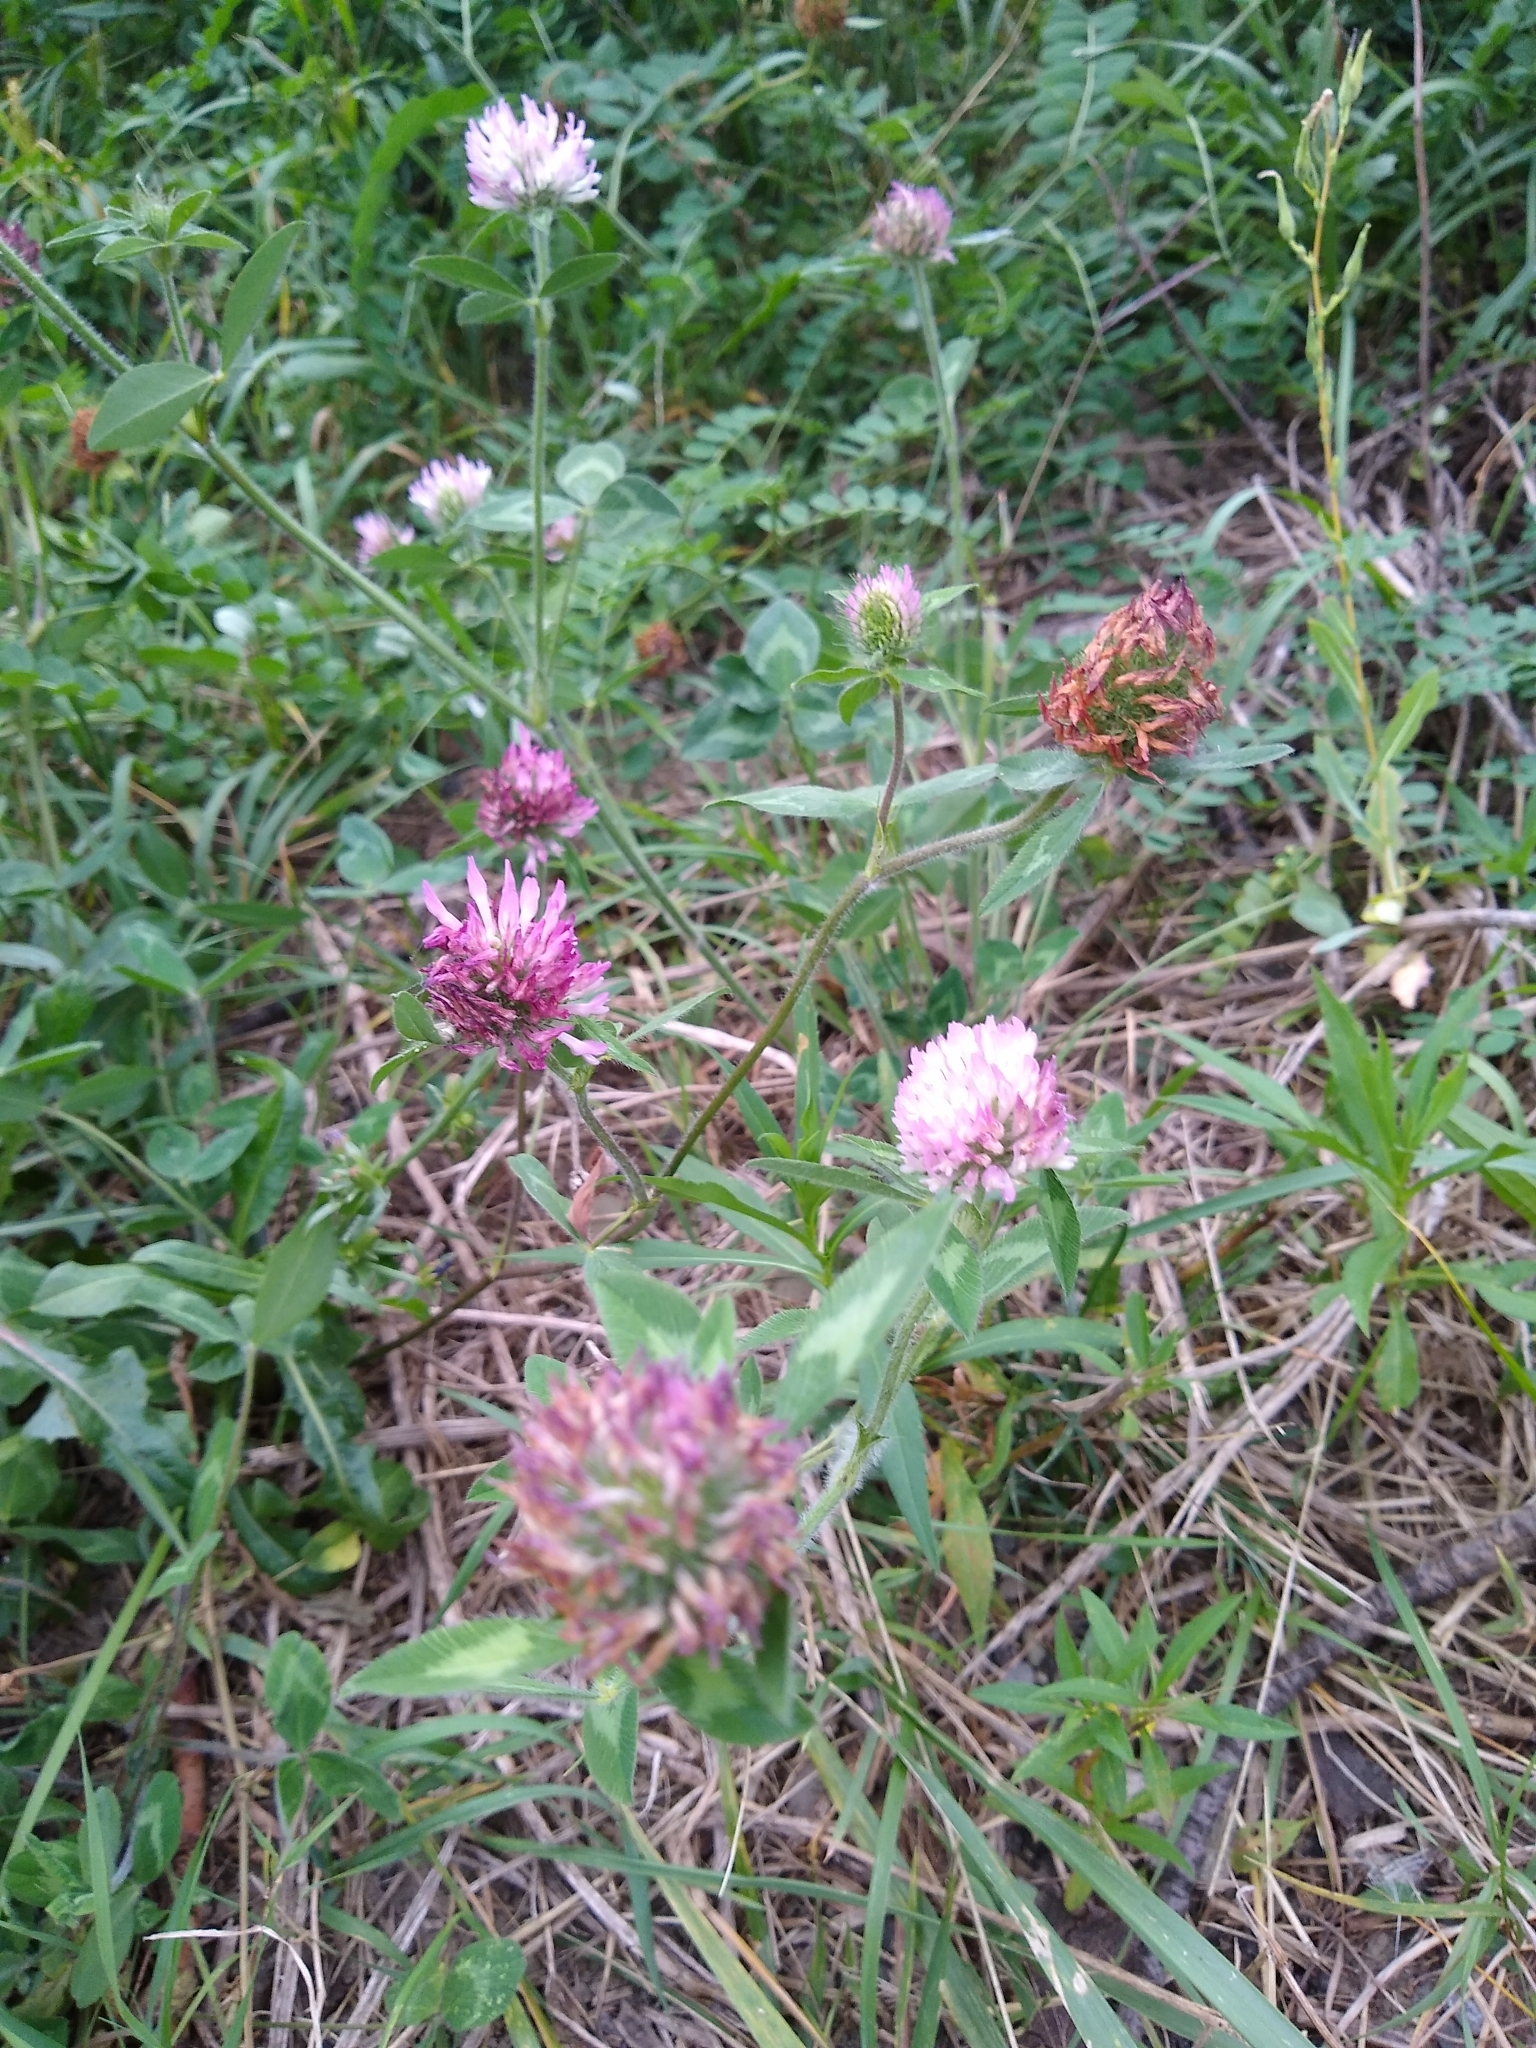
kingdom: Plantae
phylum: Tracheophyta
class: Magnoliopsida
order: Fabales
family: Fabaceae
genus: Trifolium
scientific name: Trifolium pratense
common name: Red clover
